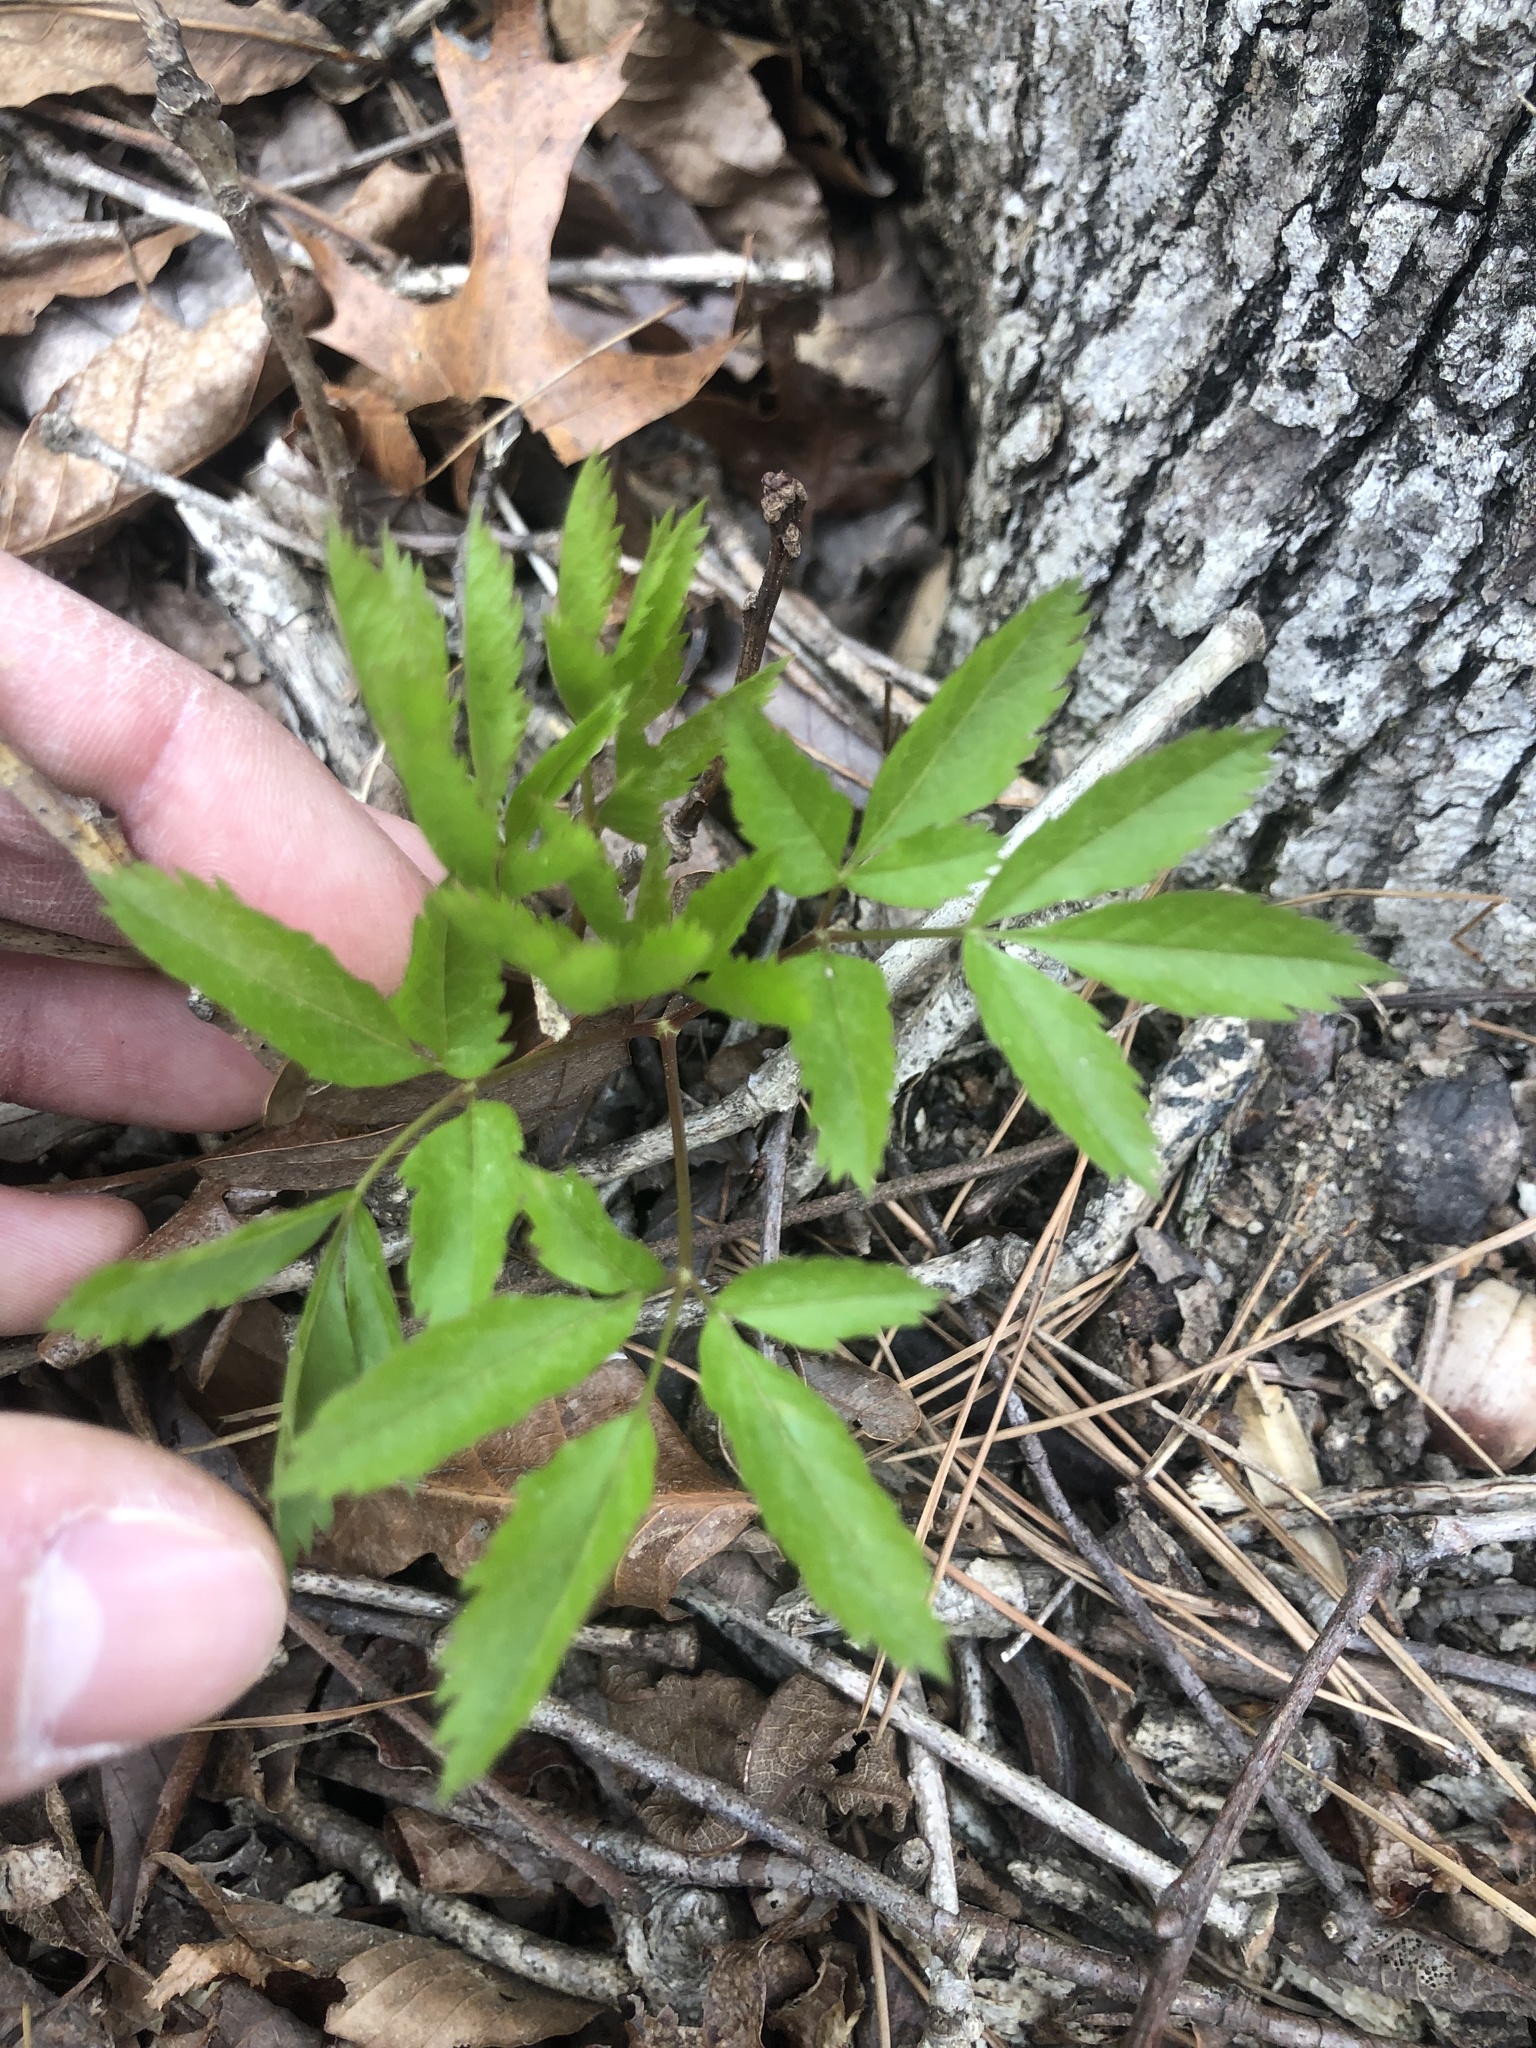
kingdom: Plantae
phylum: Tracheophyta
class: Magnoliopsida
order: Apiales
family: Apiaceae
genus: Ligusticum
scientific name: Ligusticum canadense
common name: American lovage
